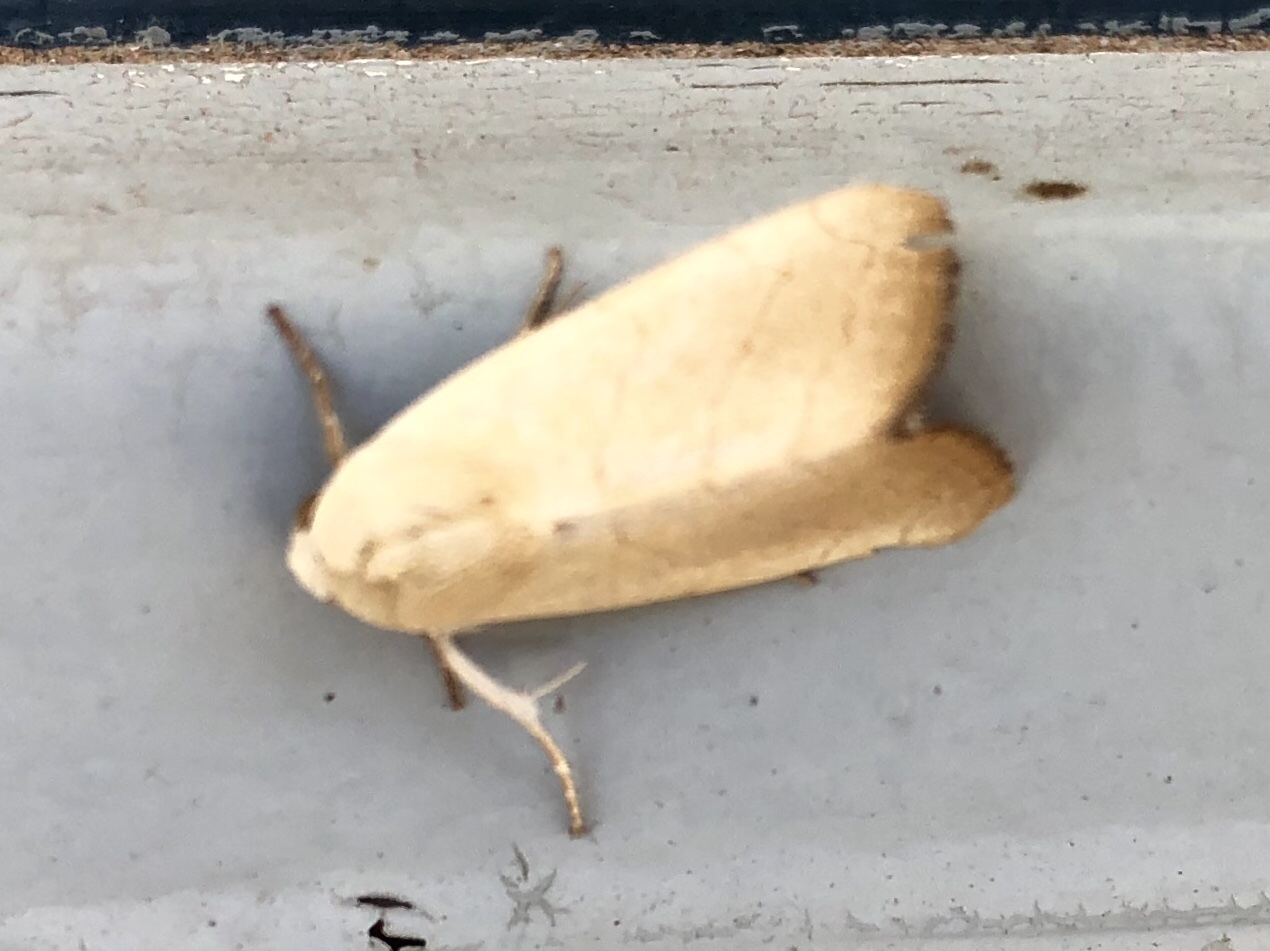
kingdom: Animalia
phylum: Arthropoda
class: Insecta
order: Lepidoptera
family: Noctuidae
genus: Bagisara
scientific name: Bagisara buxea
